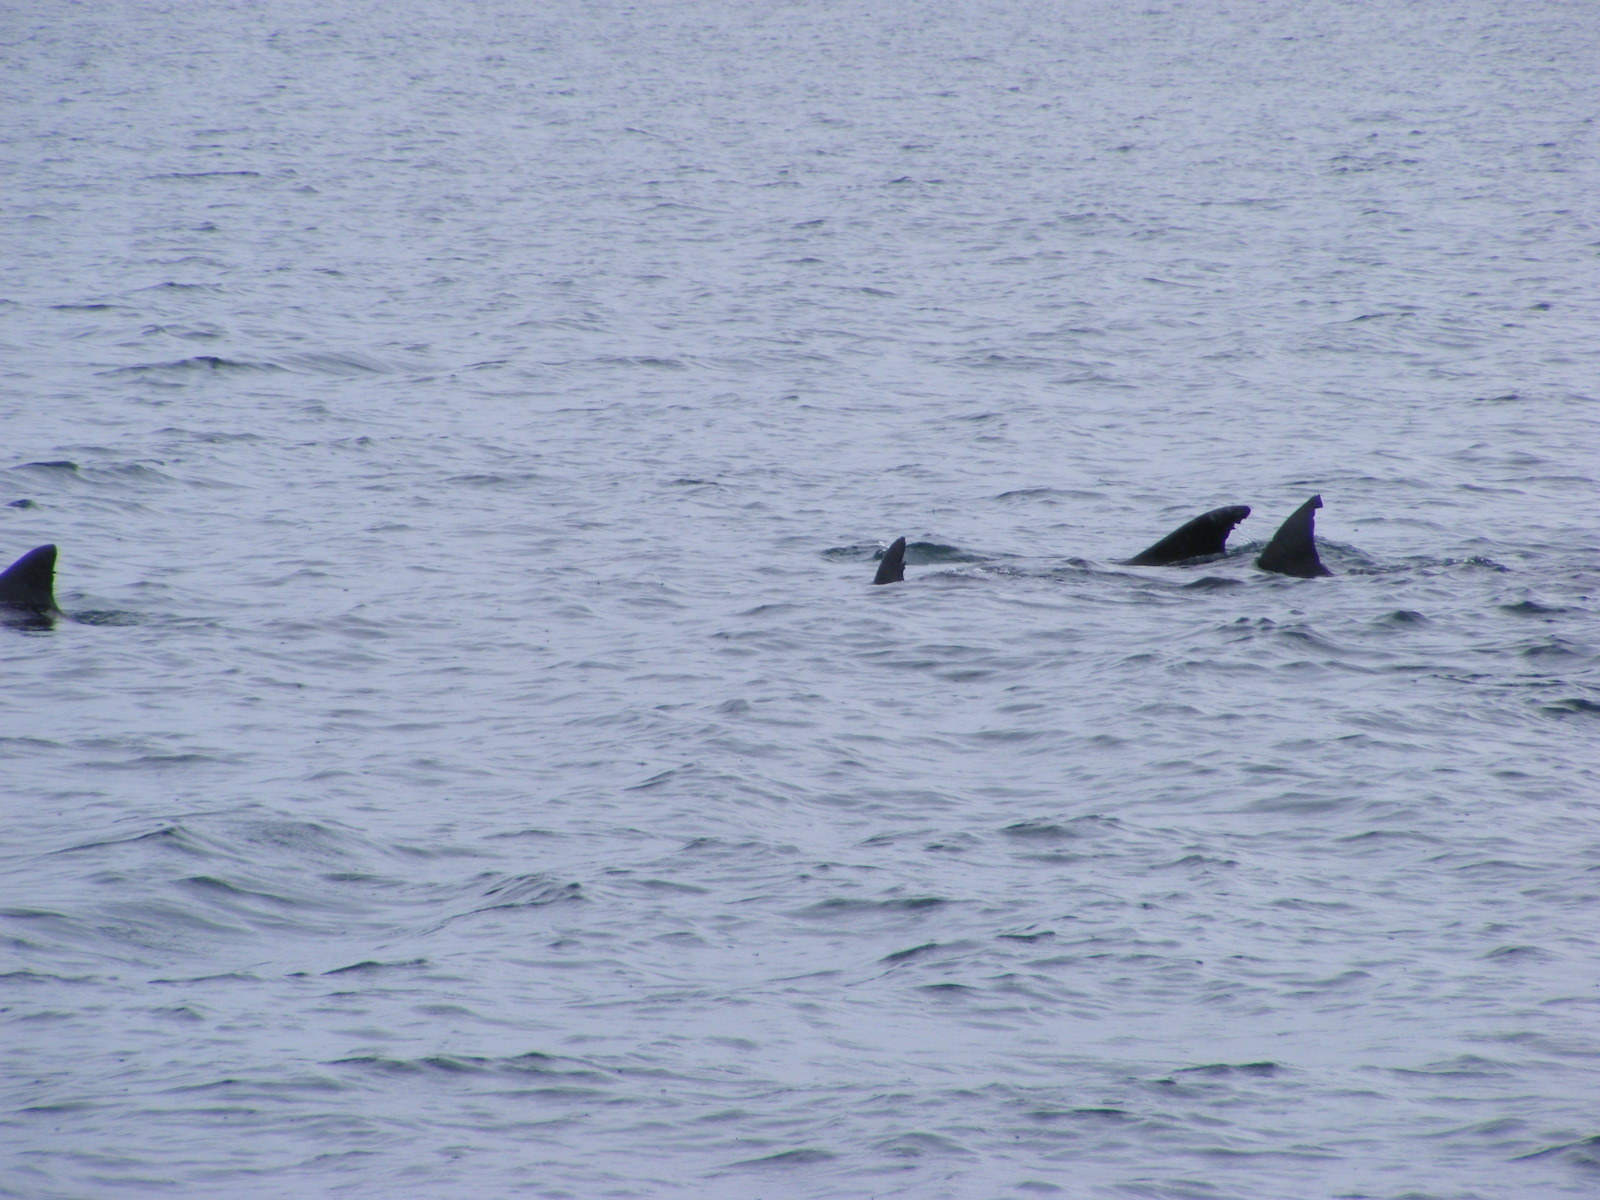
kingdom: Animalia
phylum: Chordata
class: Mammalia
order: Cetacea
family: Delphinidae
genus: Tursiops
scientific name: Tursiops truncatus
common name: Bottlenose dolphin
